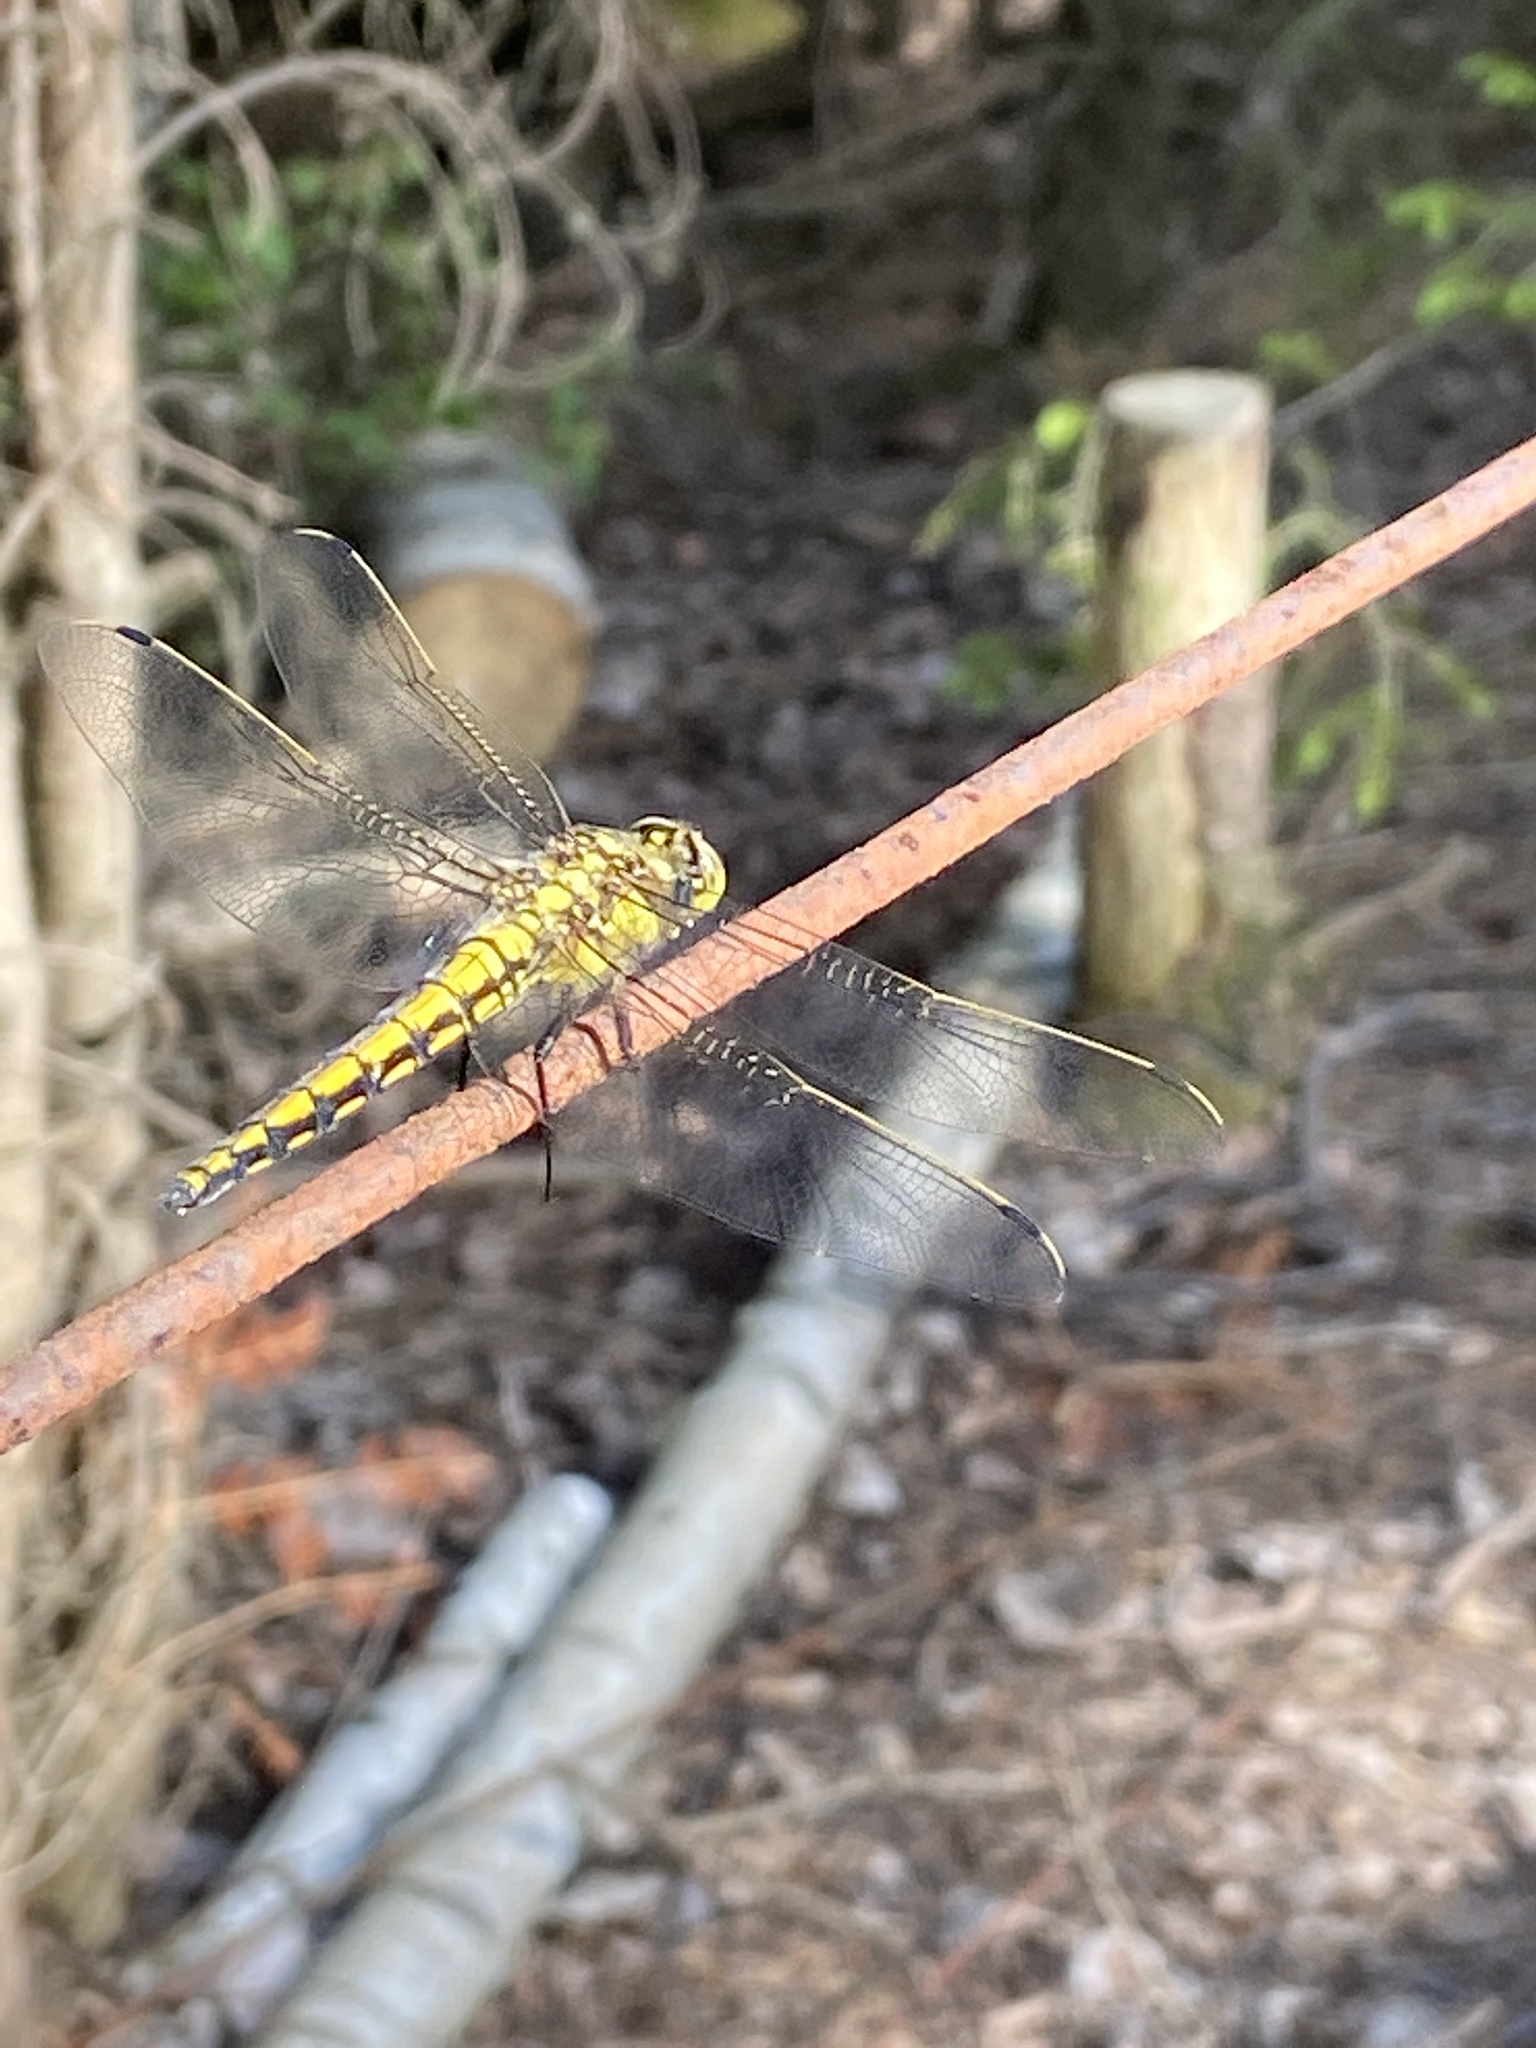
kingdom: Animalia
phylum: Arthropoda
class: Insecta
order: Odonata
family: Libellulidae
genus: Orthetrum
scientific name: Orthetrum cancellatum
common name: Black-tailed skimmer
